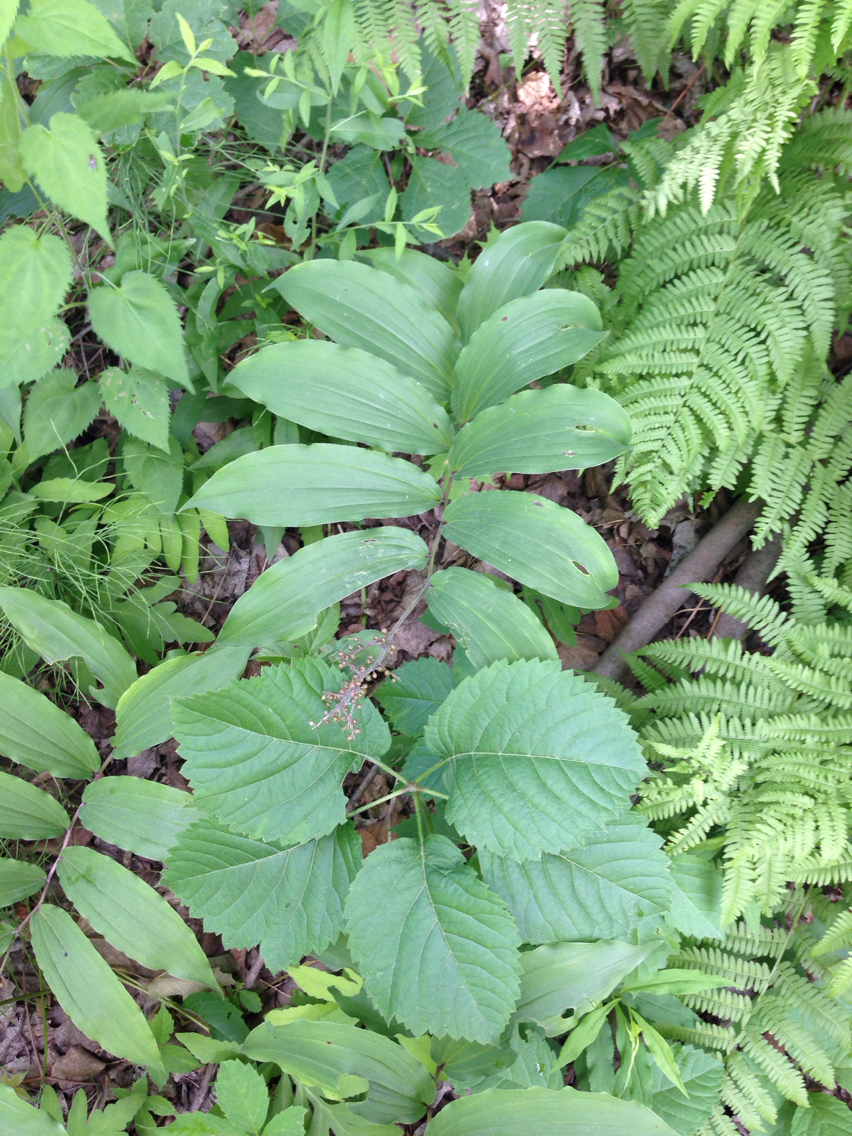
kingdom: Plantae
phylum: Tracheophyta
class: Liliopsida
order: Asparagales
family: Asparagaceae
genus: Maianthemum
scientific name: Maianthemum racemosum
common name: False spikenard
